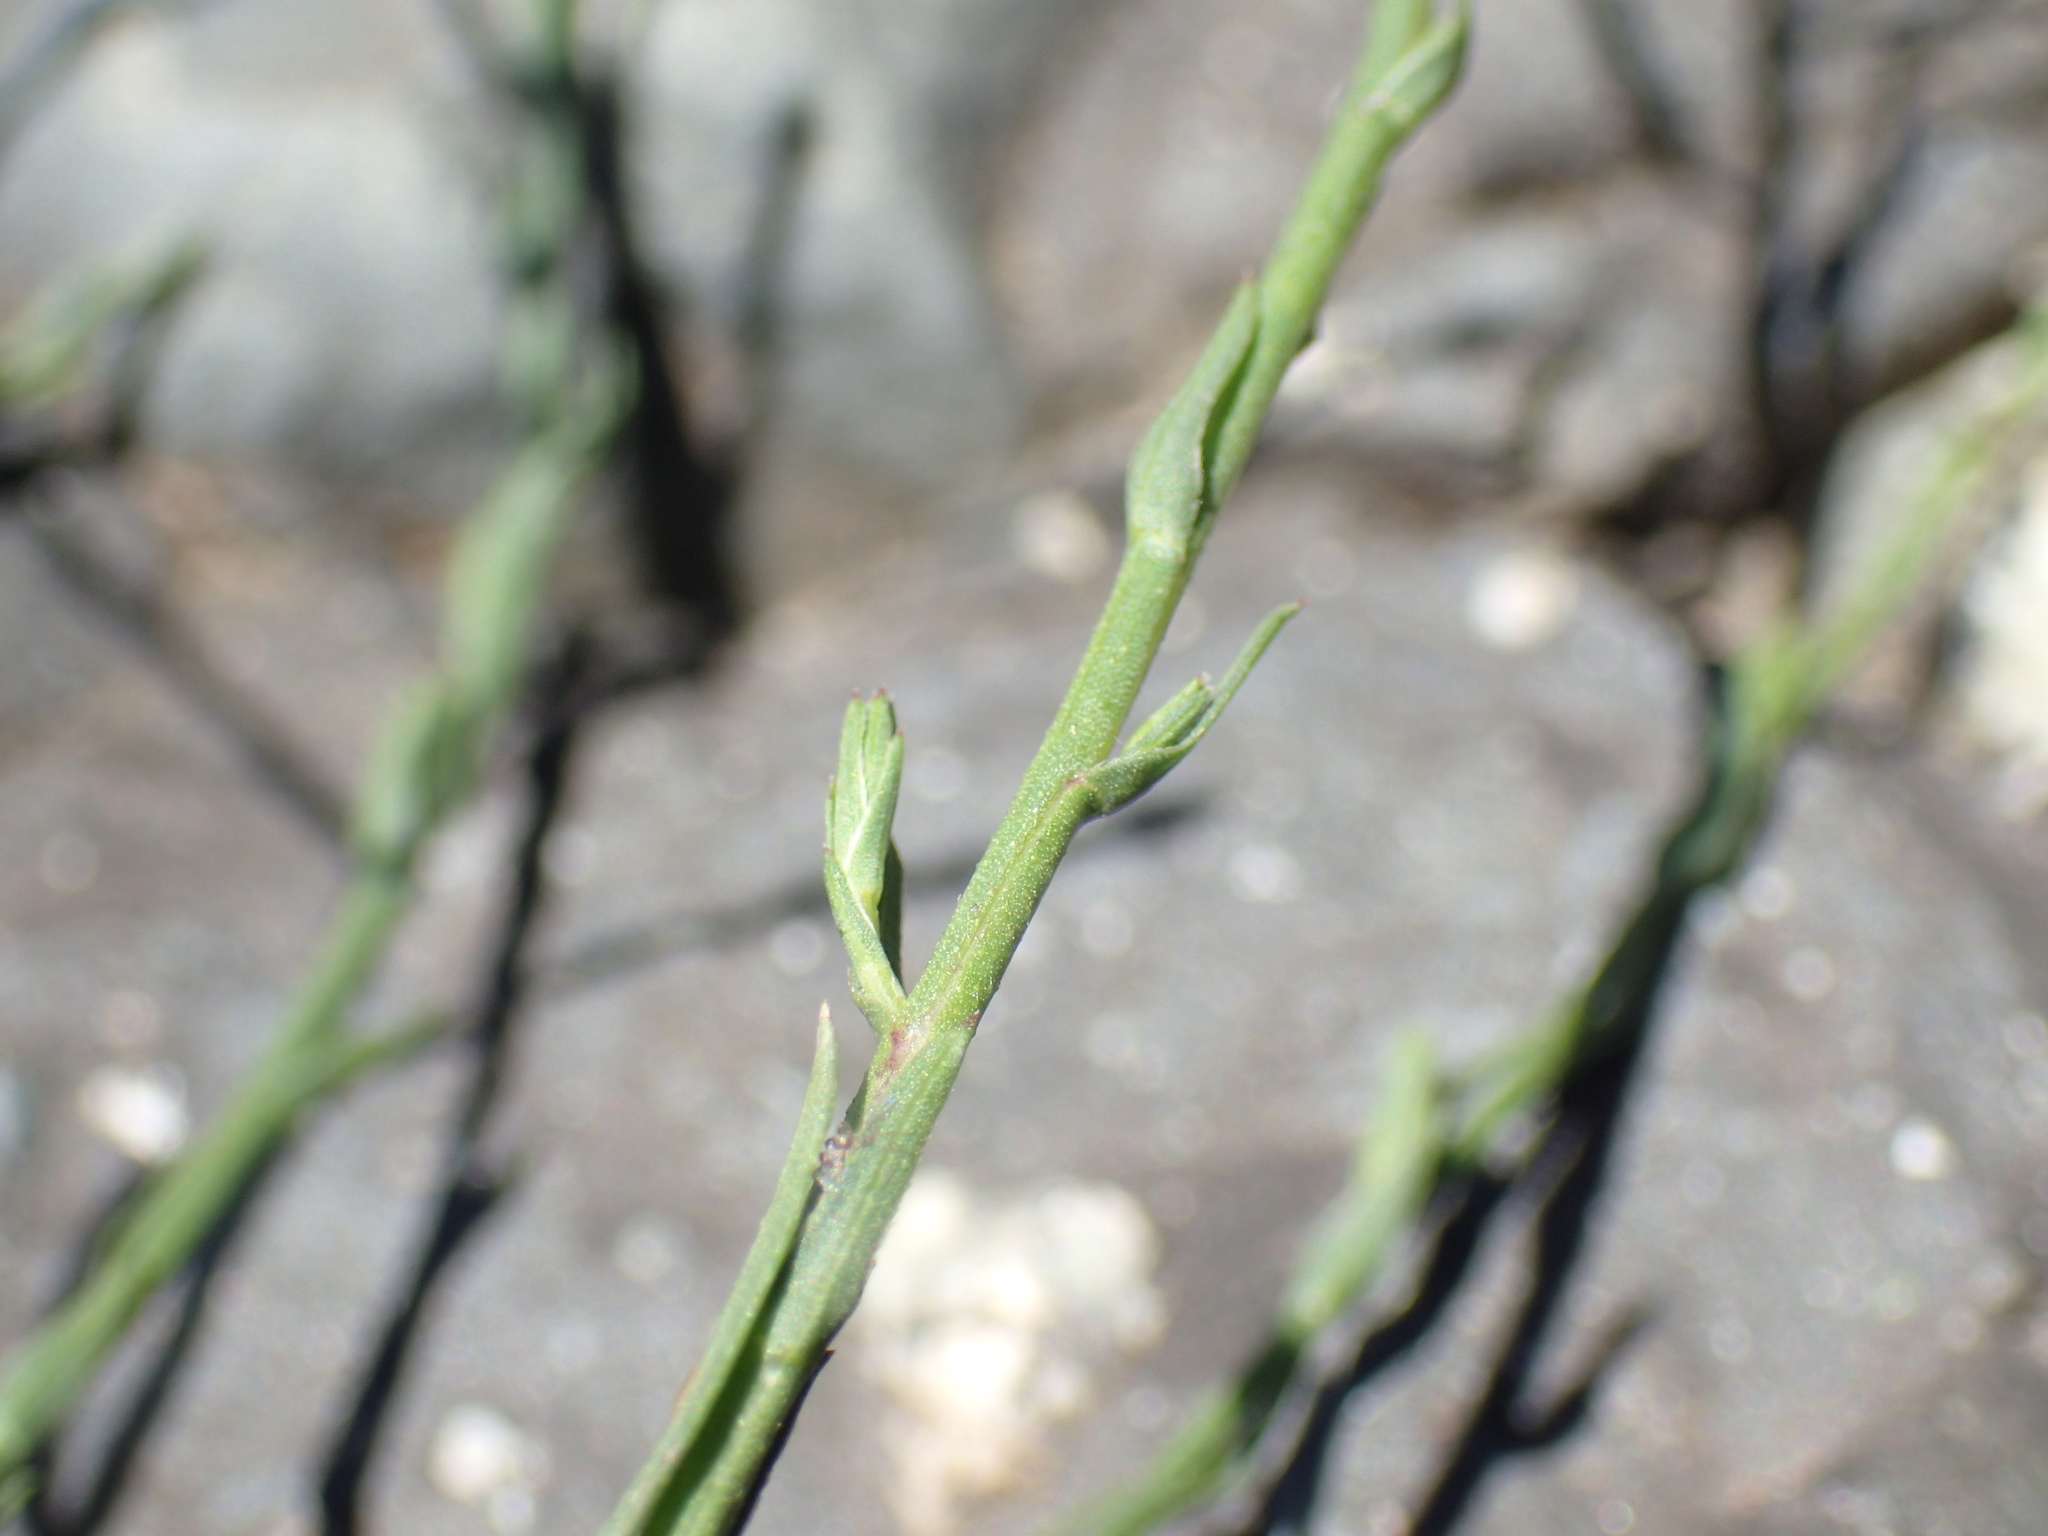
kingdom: Plantae
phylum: Tracheophyta
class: Magnoliopsida
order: Asterales
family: Asteraceae
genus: Symphyotrichum
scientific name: Symphyotrichum squamatum
